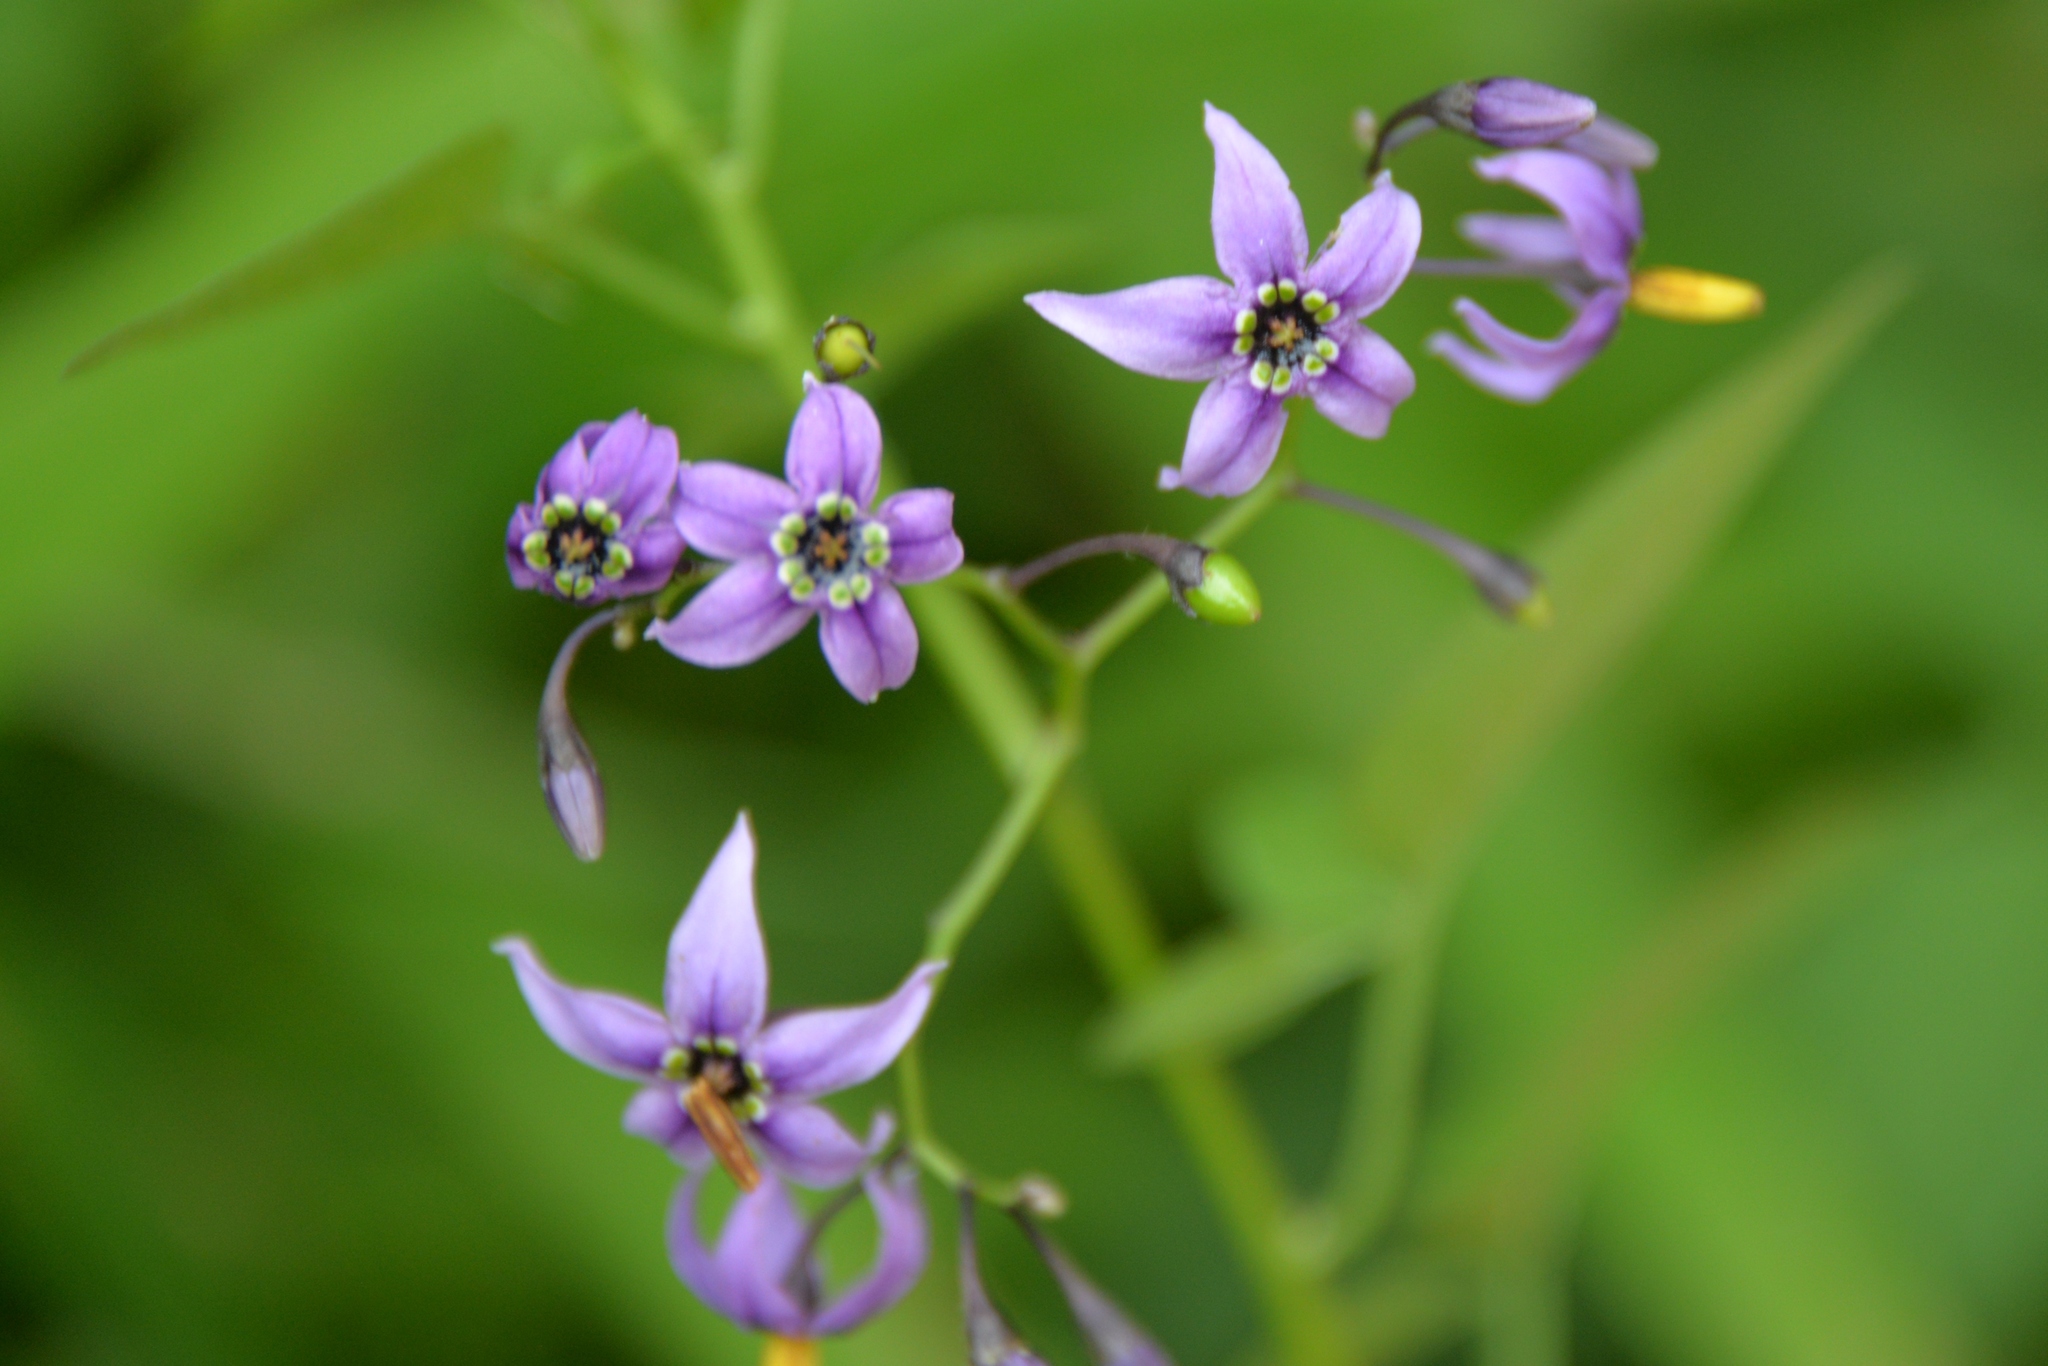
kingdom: Plantae
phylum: Tracheophyta
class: Magnoliopsida
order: Solanales
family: Solanaceae
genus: Solanum
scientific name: Solanum dulcamara
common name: Climbing nightshade
